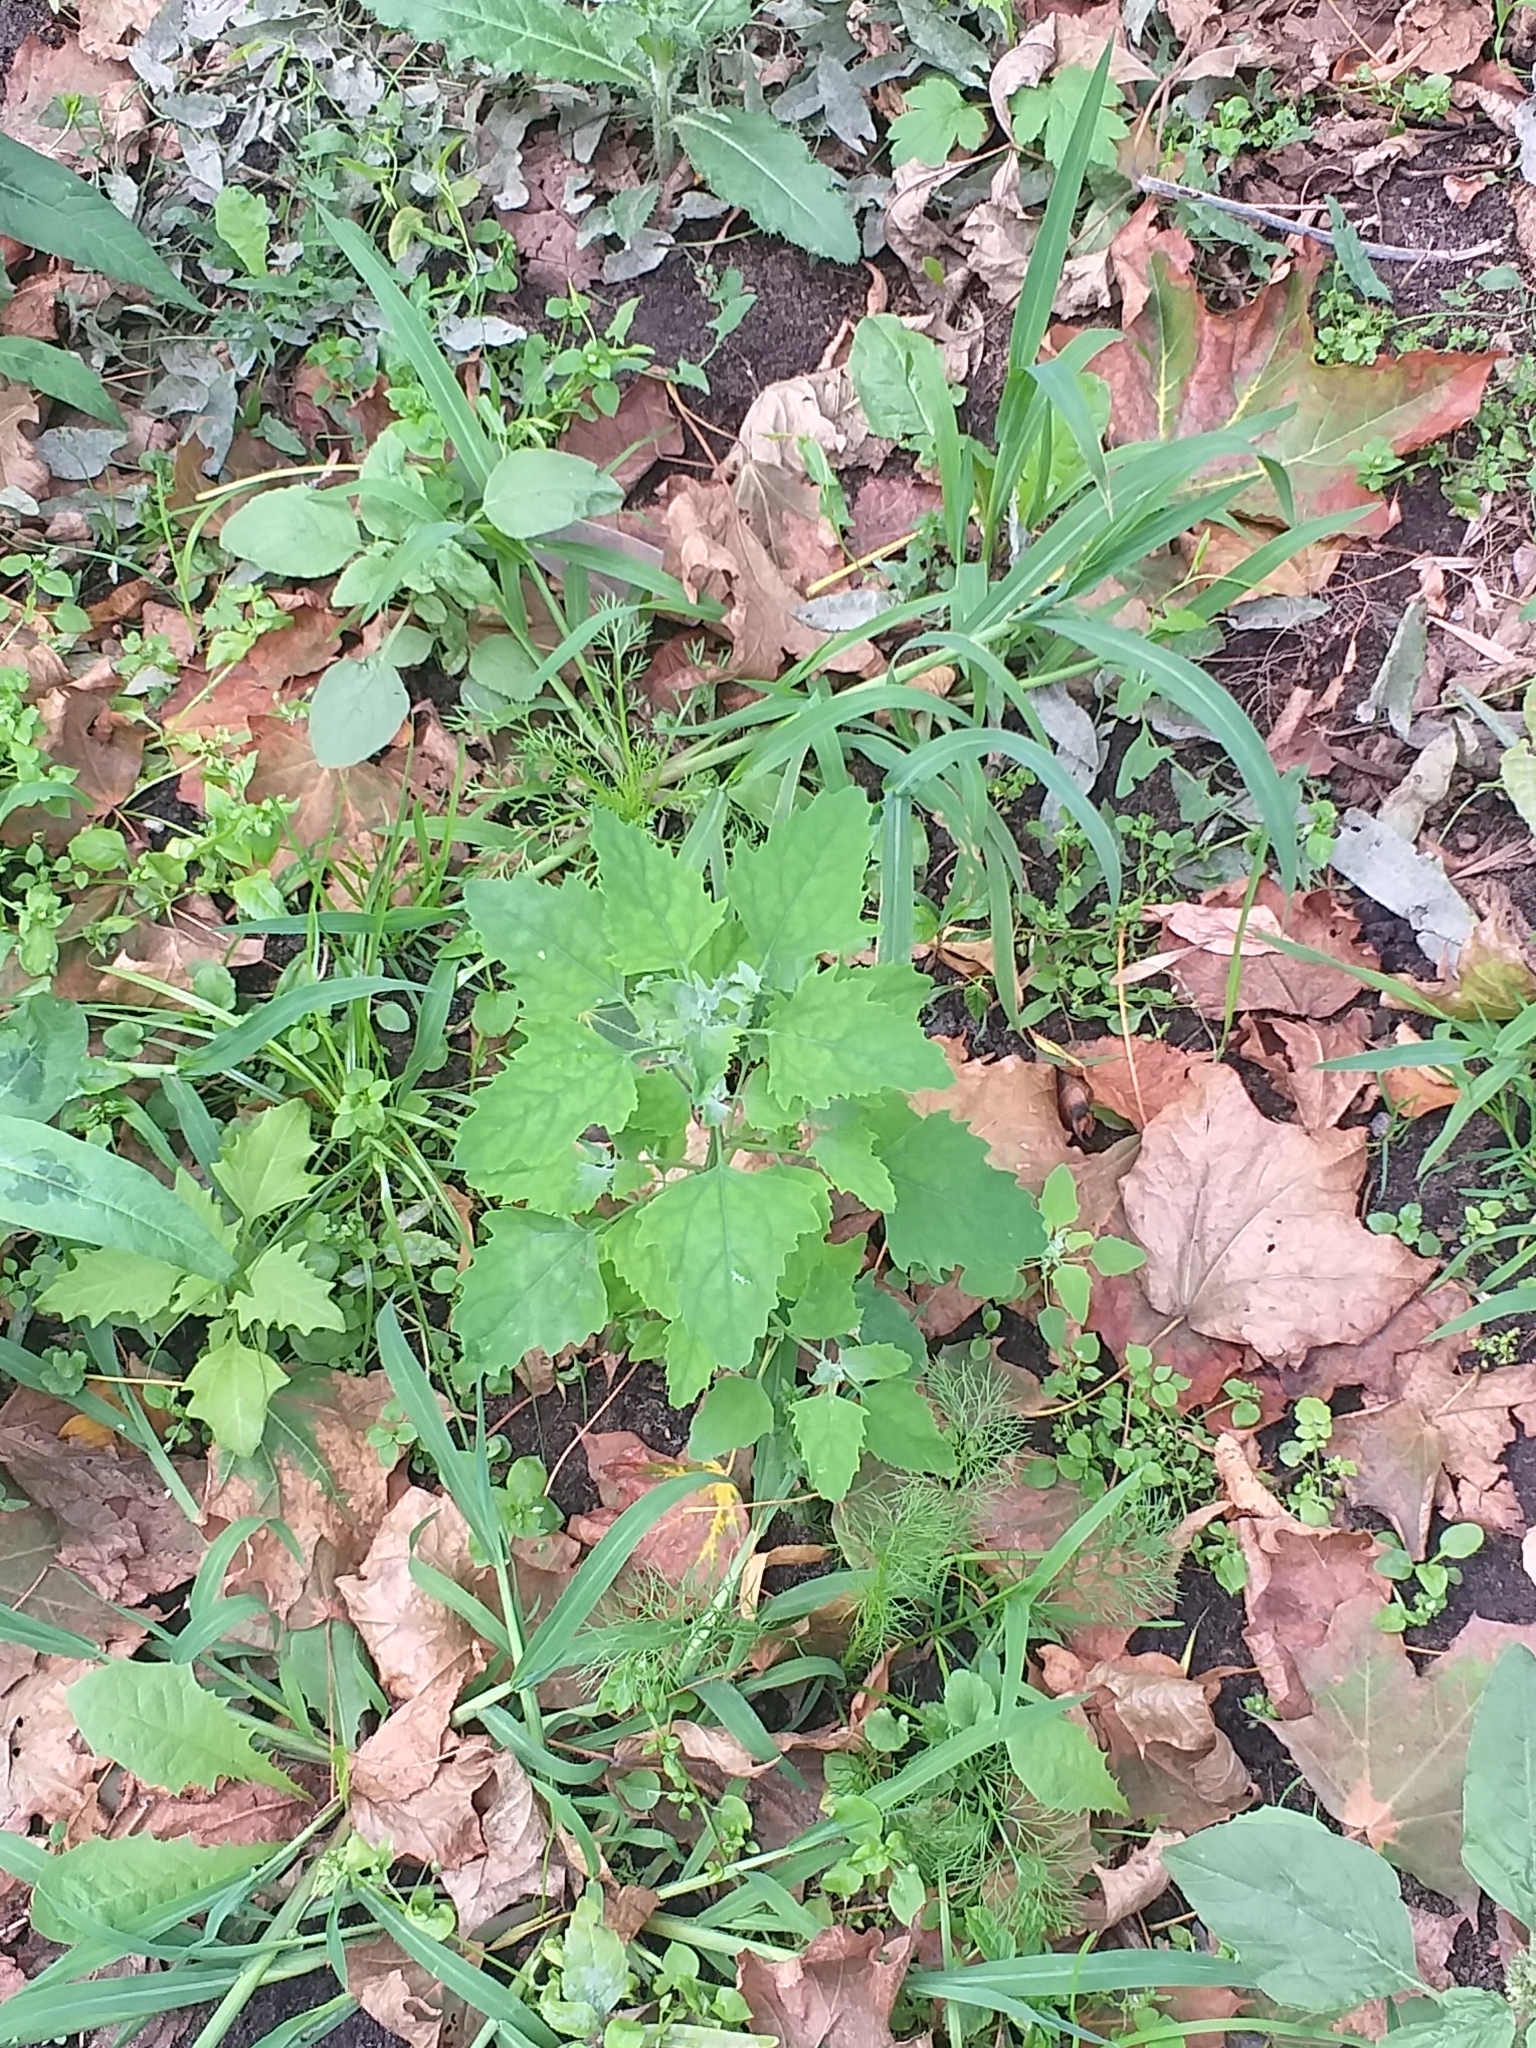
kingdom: Plantae
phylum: Tracheophyta
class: Magnoliopsida
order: Caryophyllales
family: Amaranthaceae
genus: Chenopodium
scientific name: Chenopodium album
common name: Fat-hen
